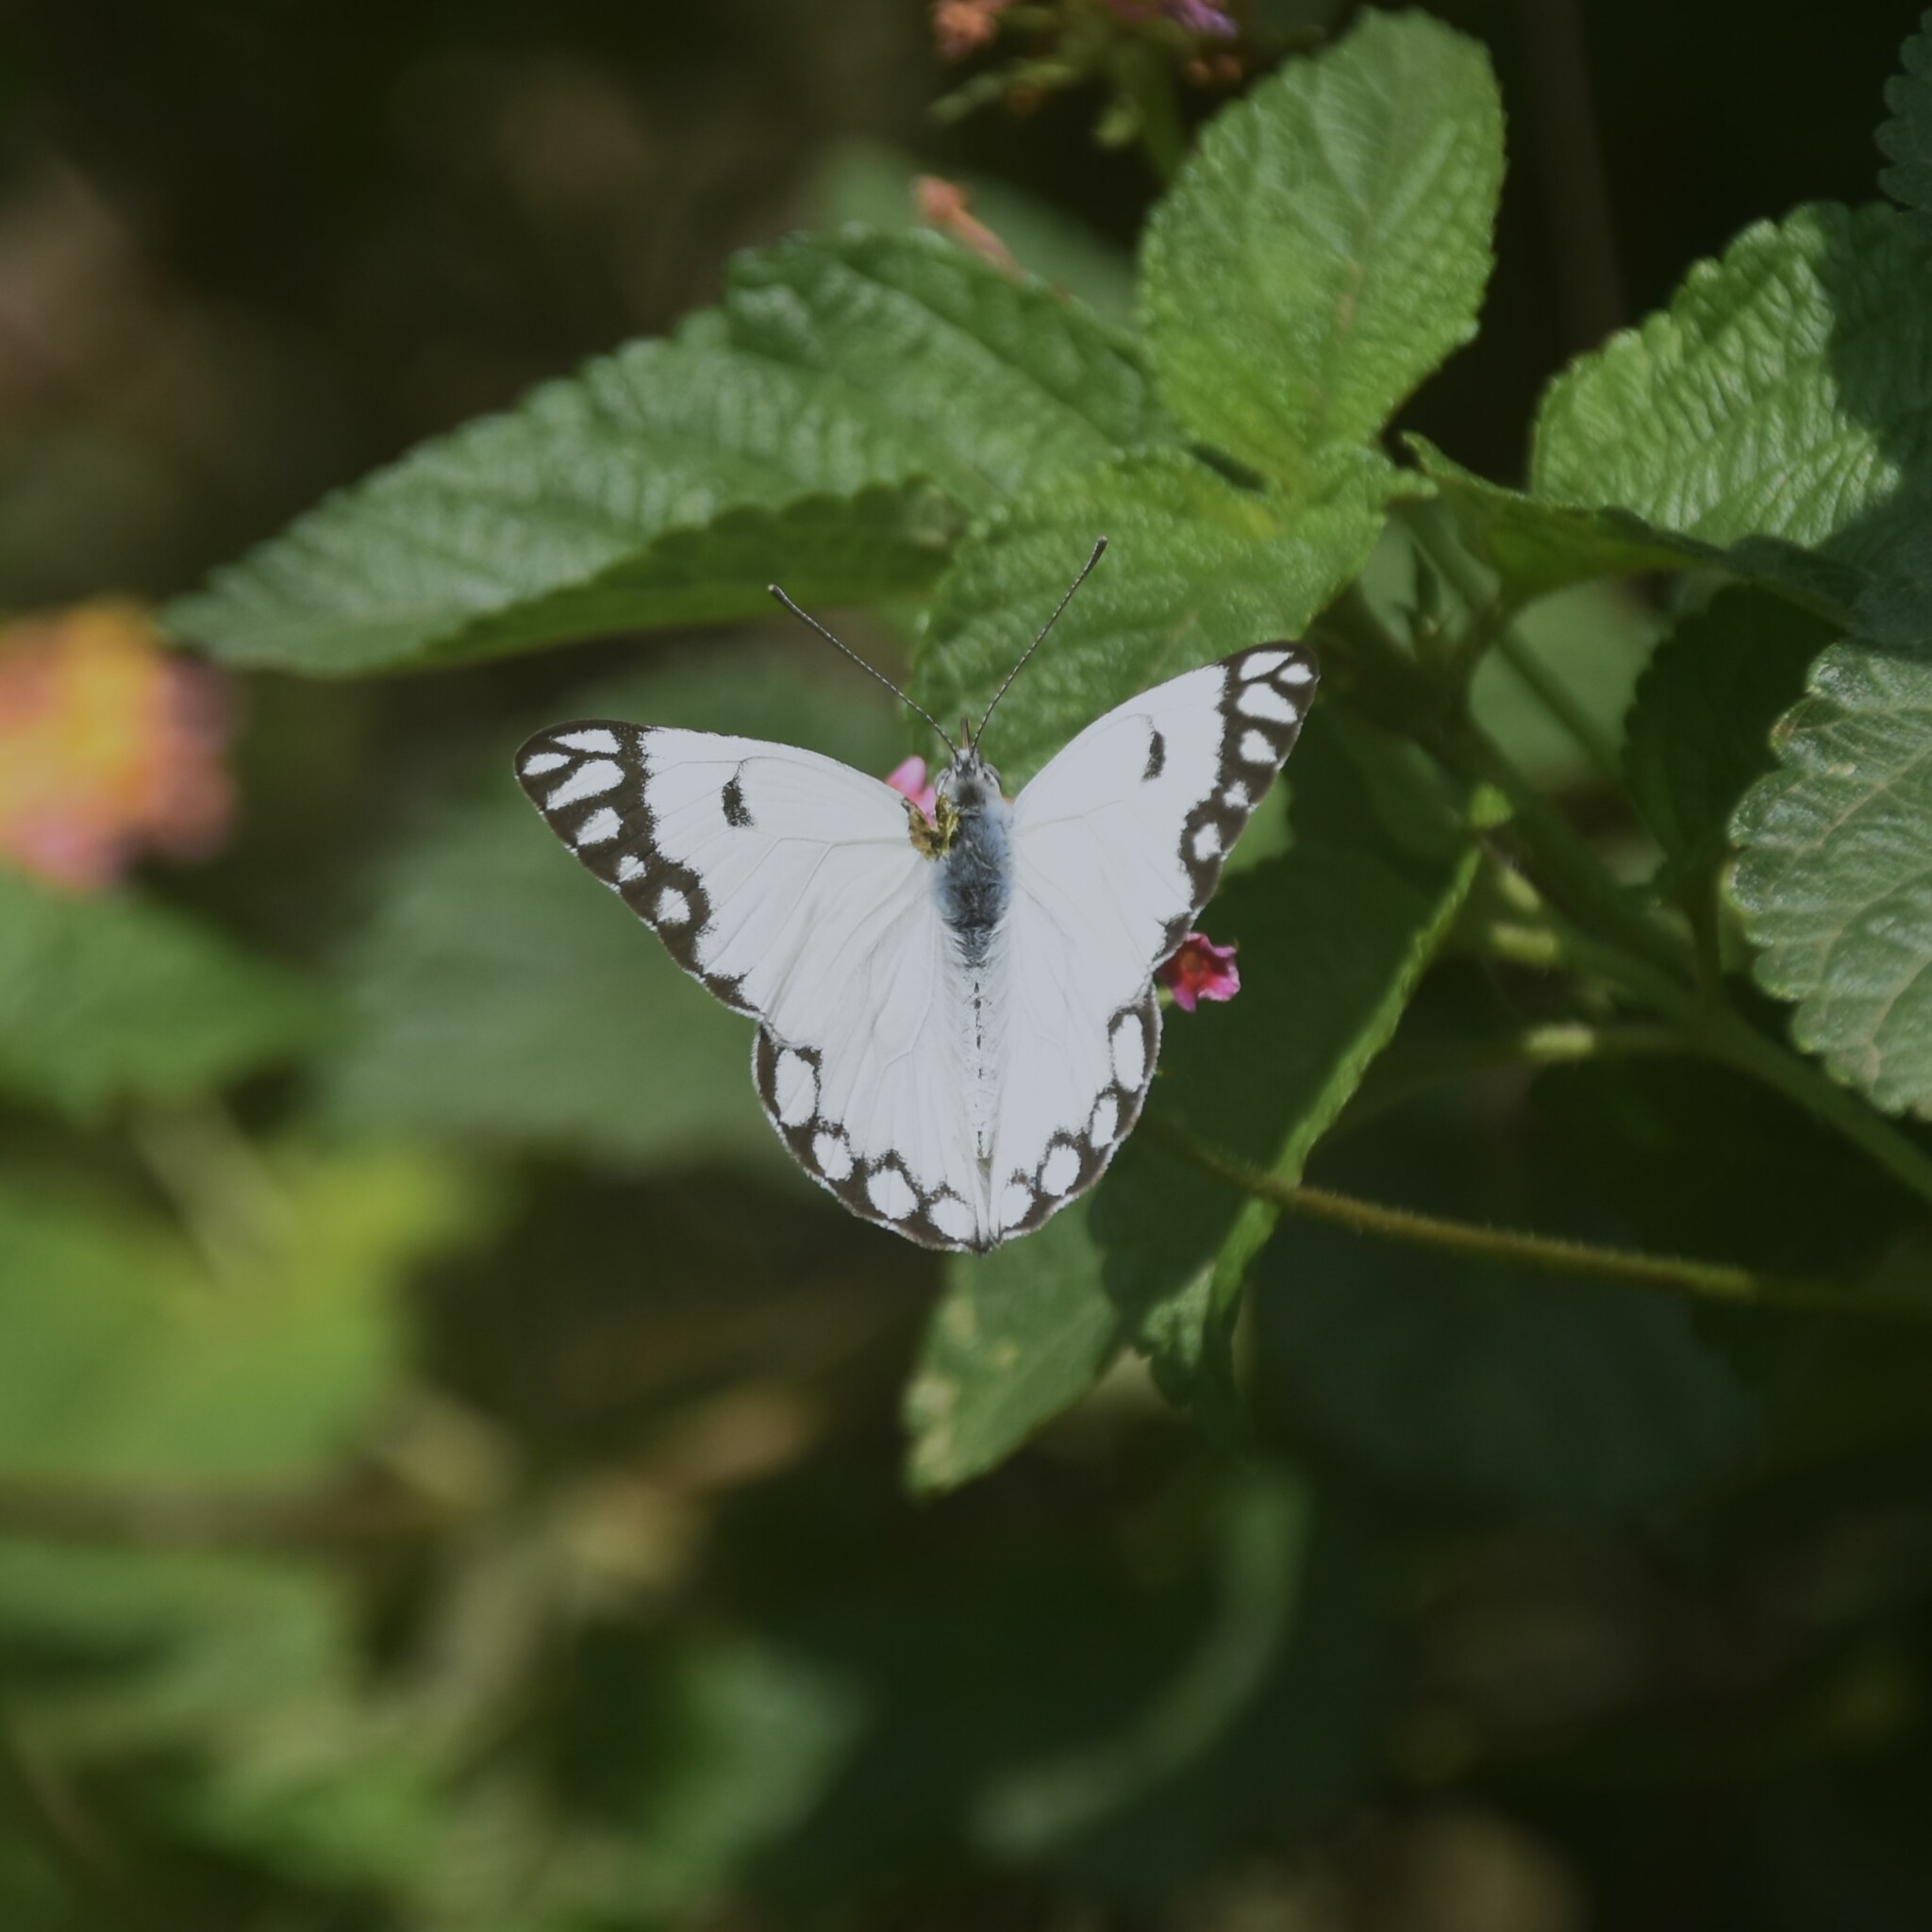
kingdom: Animalia
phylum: Arthropoda
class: Insecta
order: Lepidoptera
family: Pieridae
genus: Belenois
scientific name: Belenois aurota
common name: Brown-veined white
